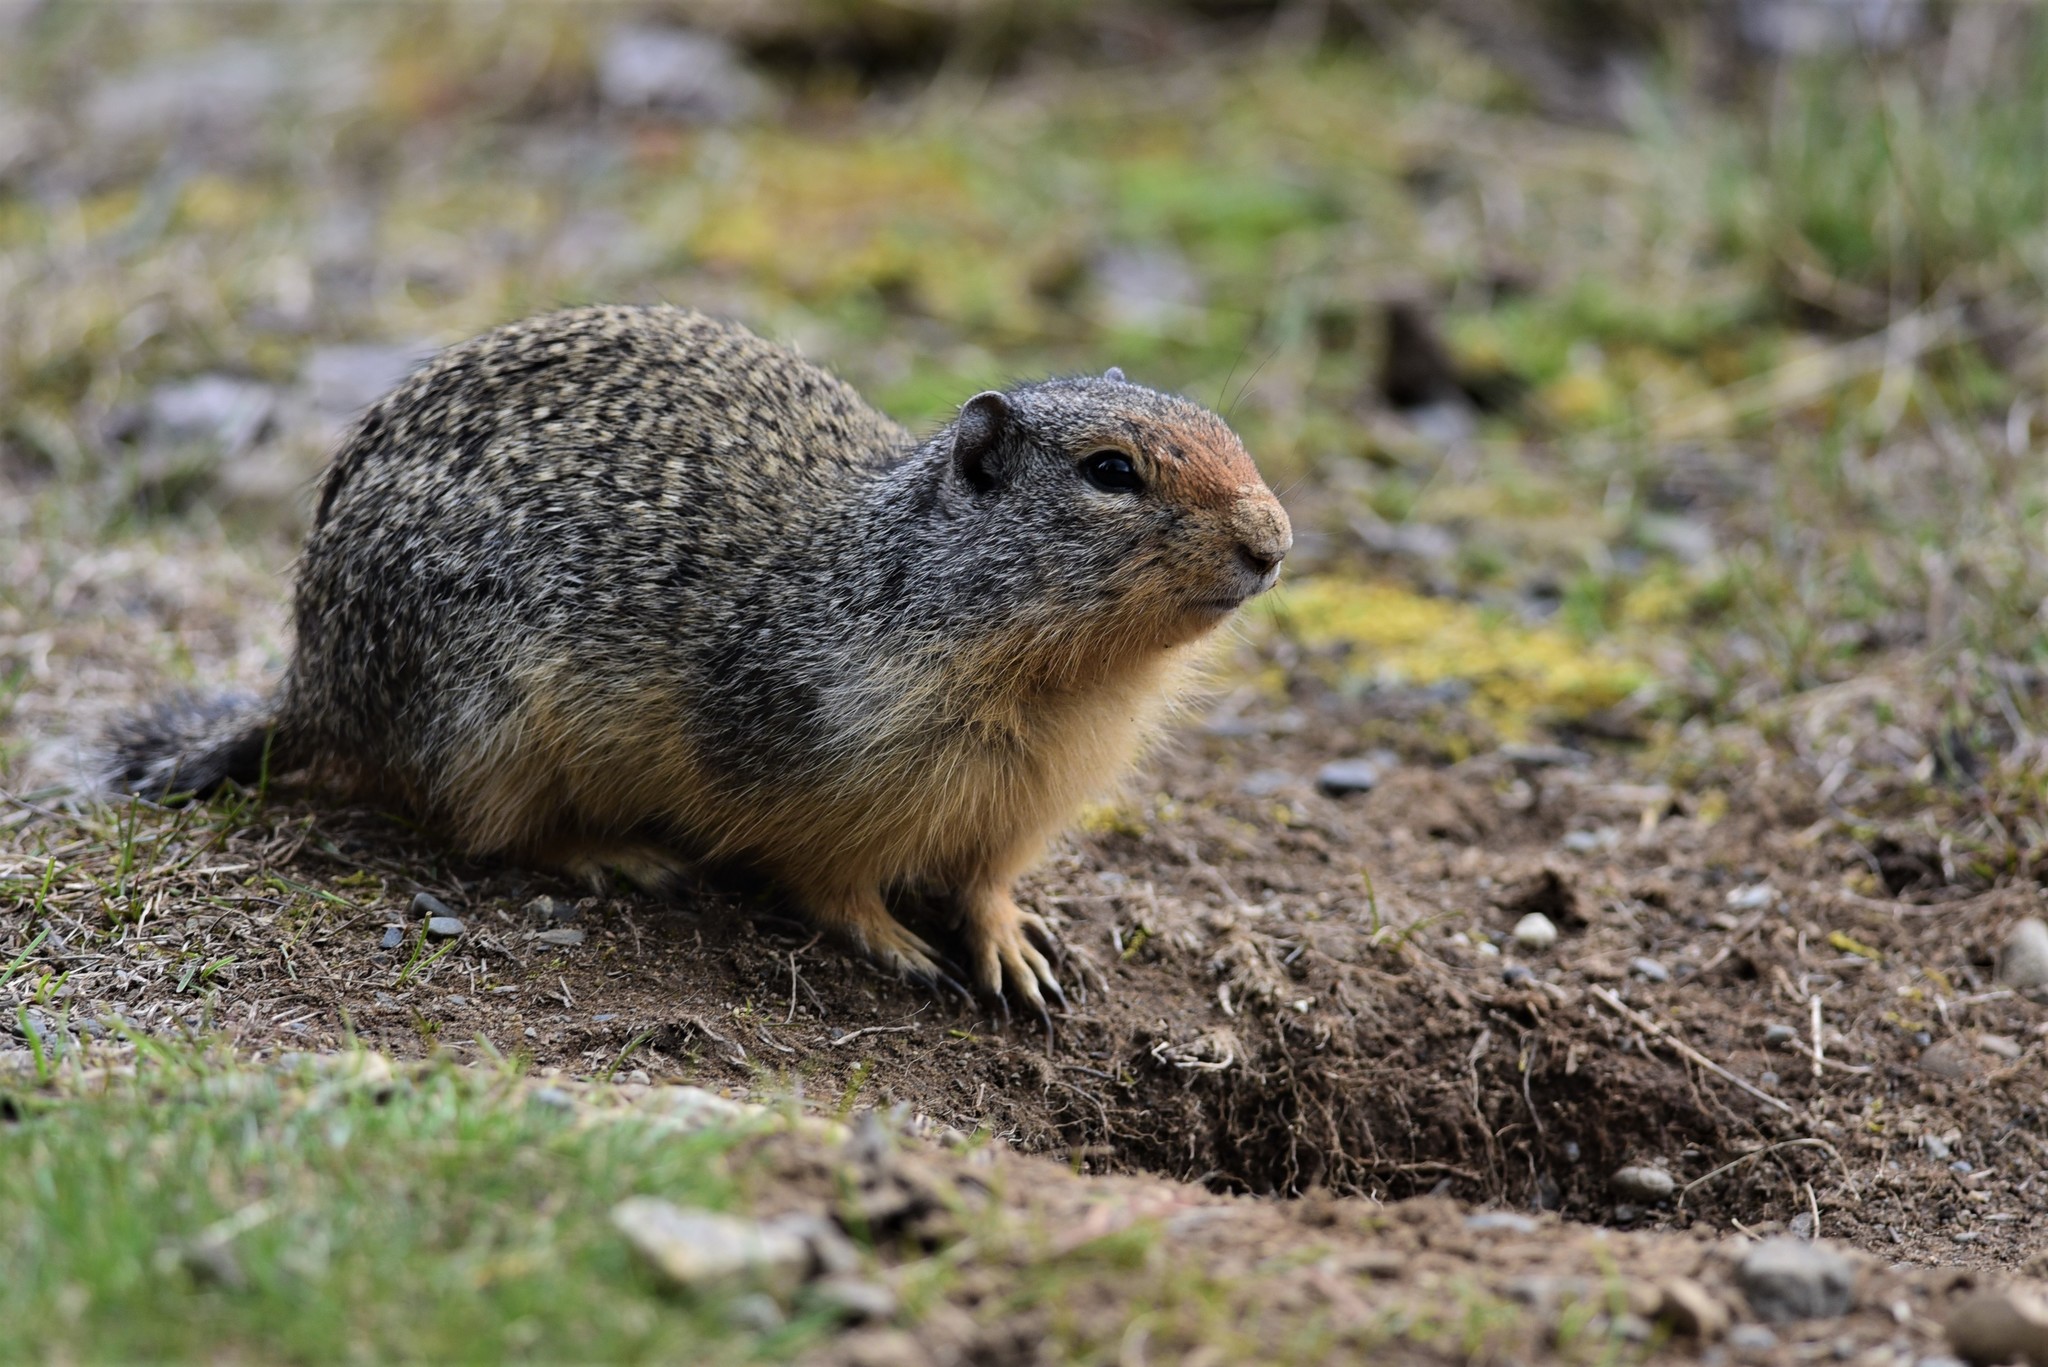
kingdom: Animalia
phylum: Chordata
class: Mammalia
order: Rodentia
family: Sciuridae
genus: Urocitellus
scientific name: Urocitellus columbianus
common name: Columbian ground squirrel
